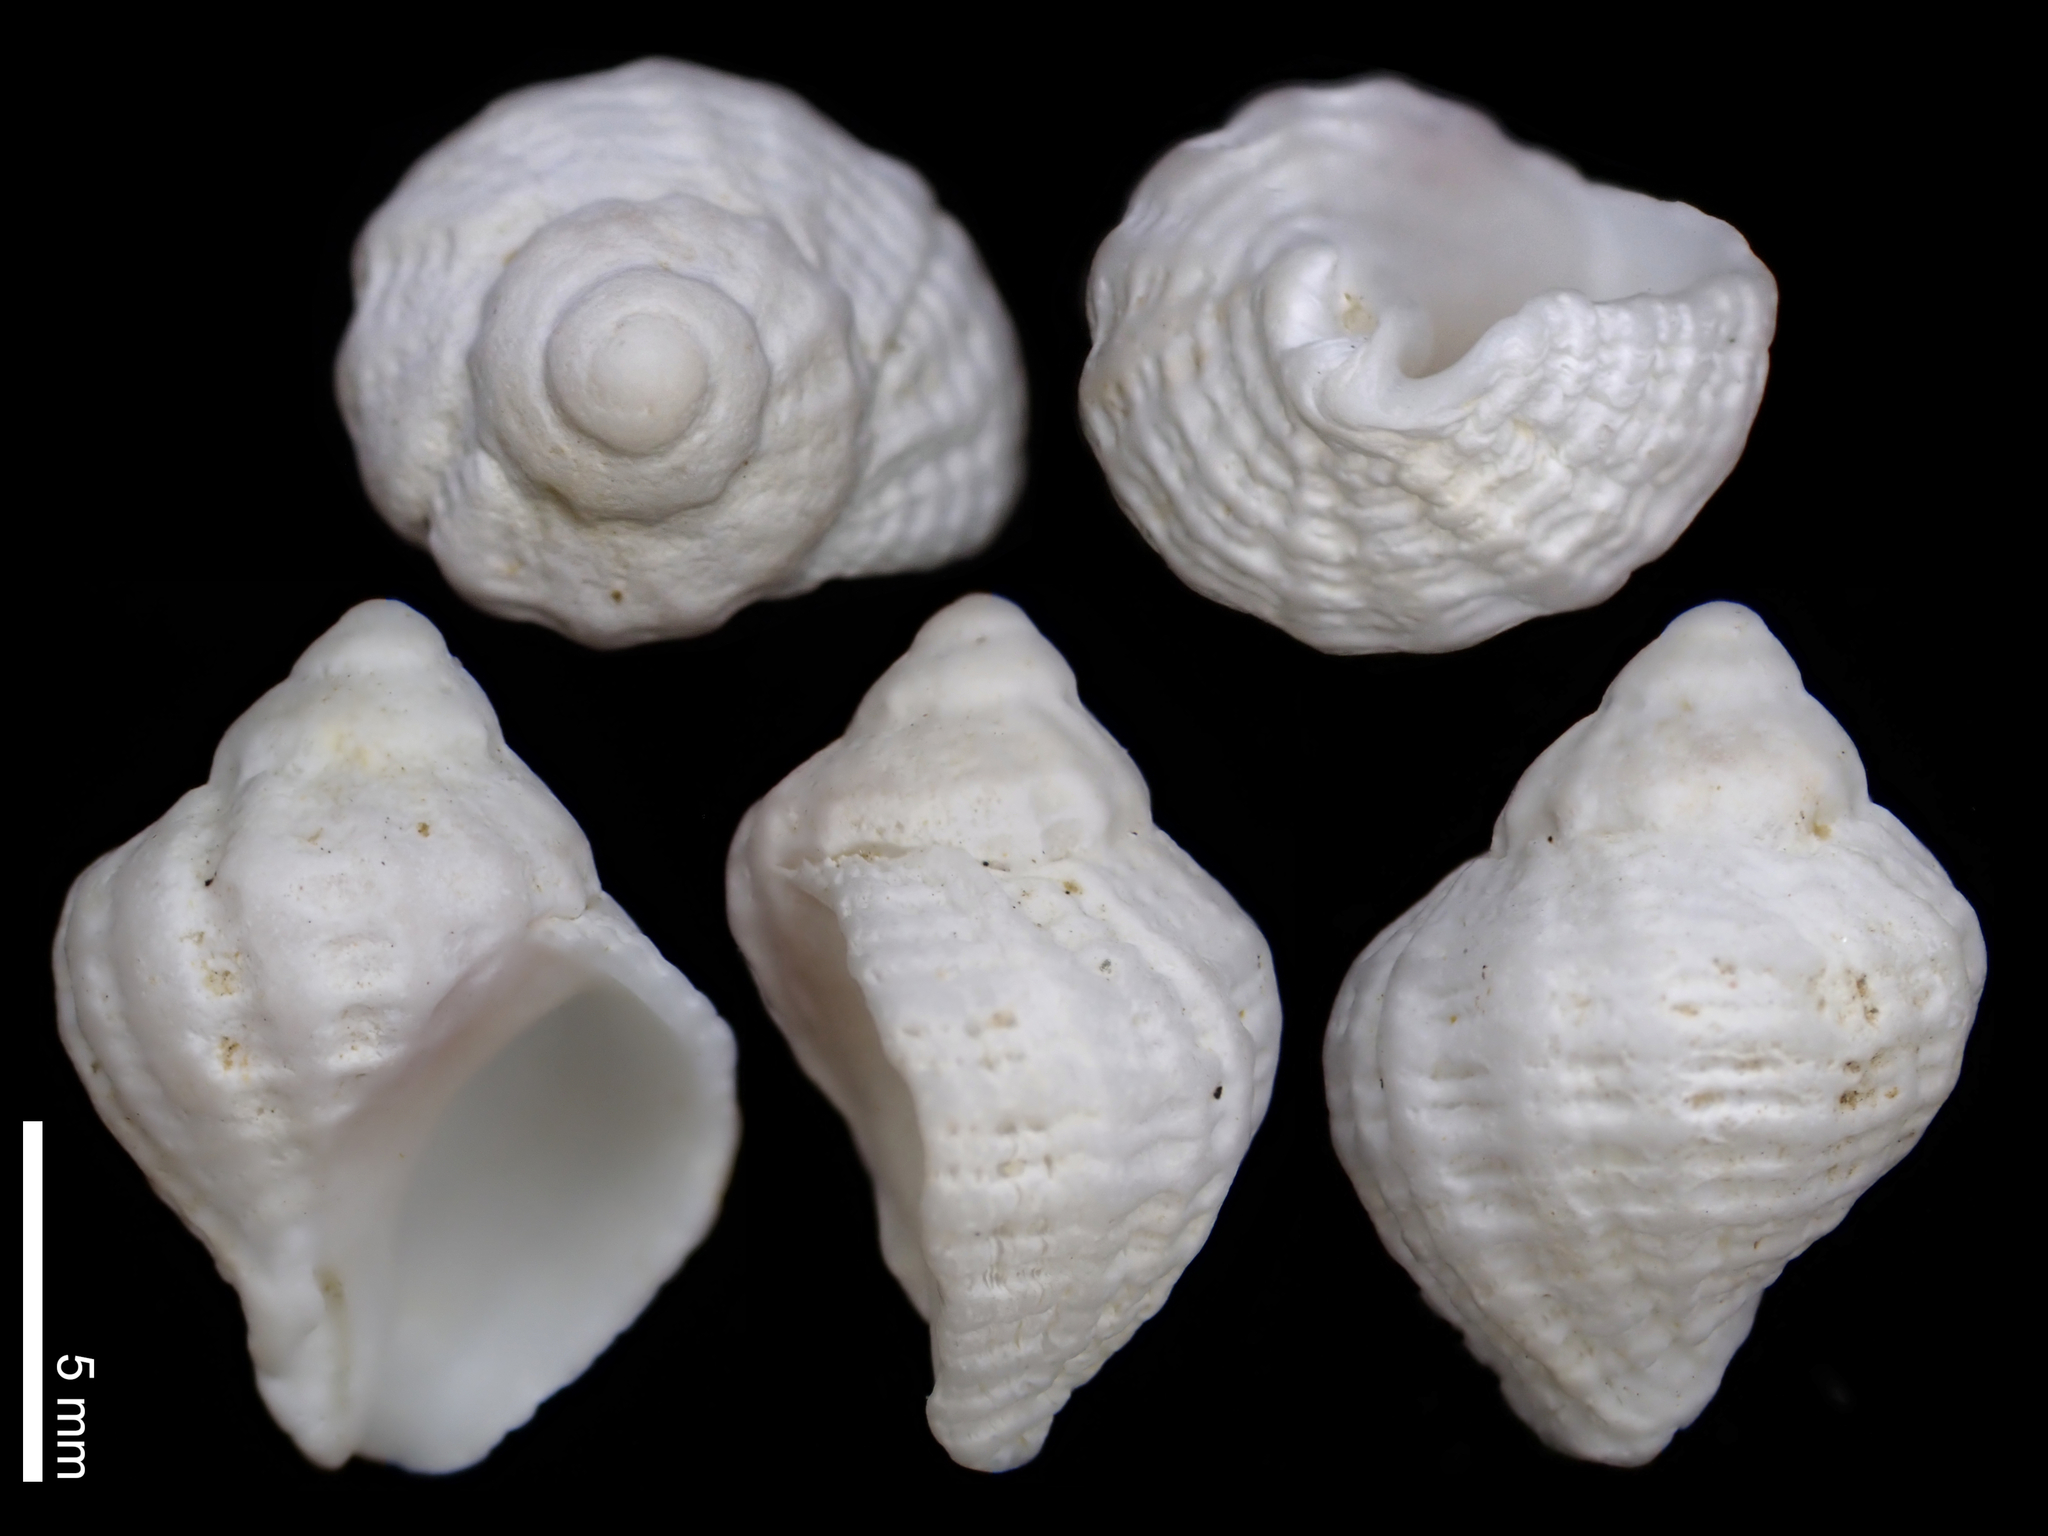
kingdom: Animalia
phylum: Mollusca
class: Gastropoda
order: Neogastropoda
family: Muricidae
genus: Coralliophila
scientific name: Coralliophila squamosissima
